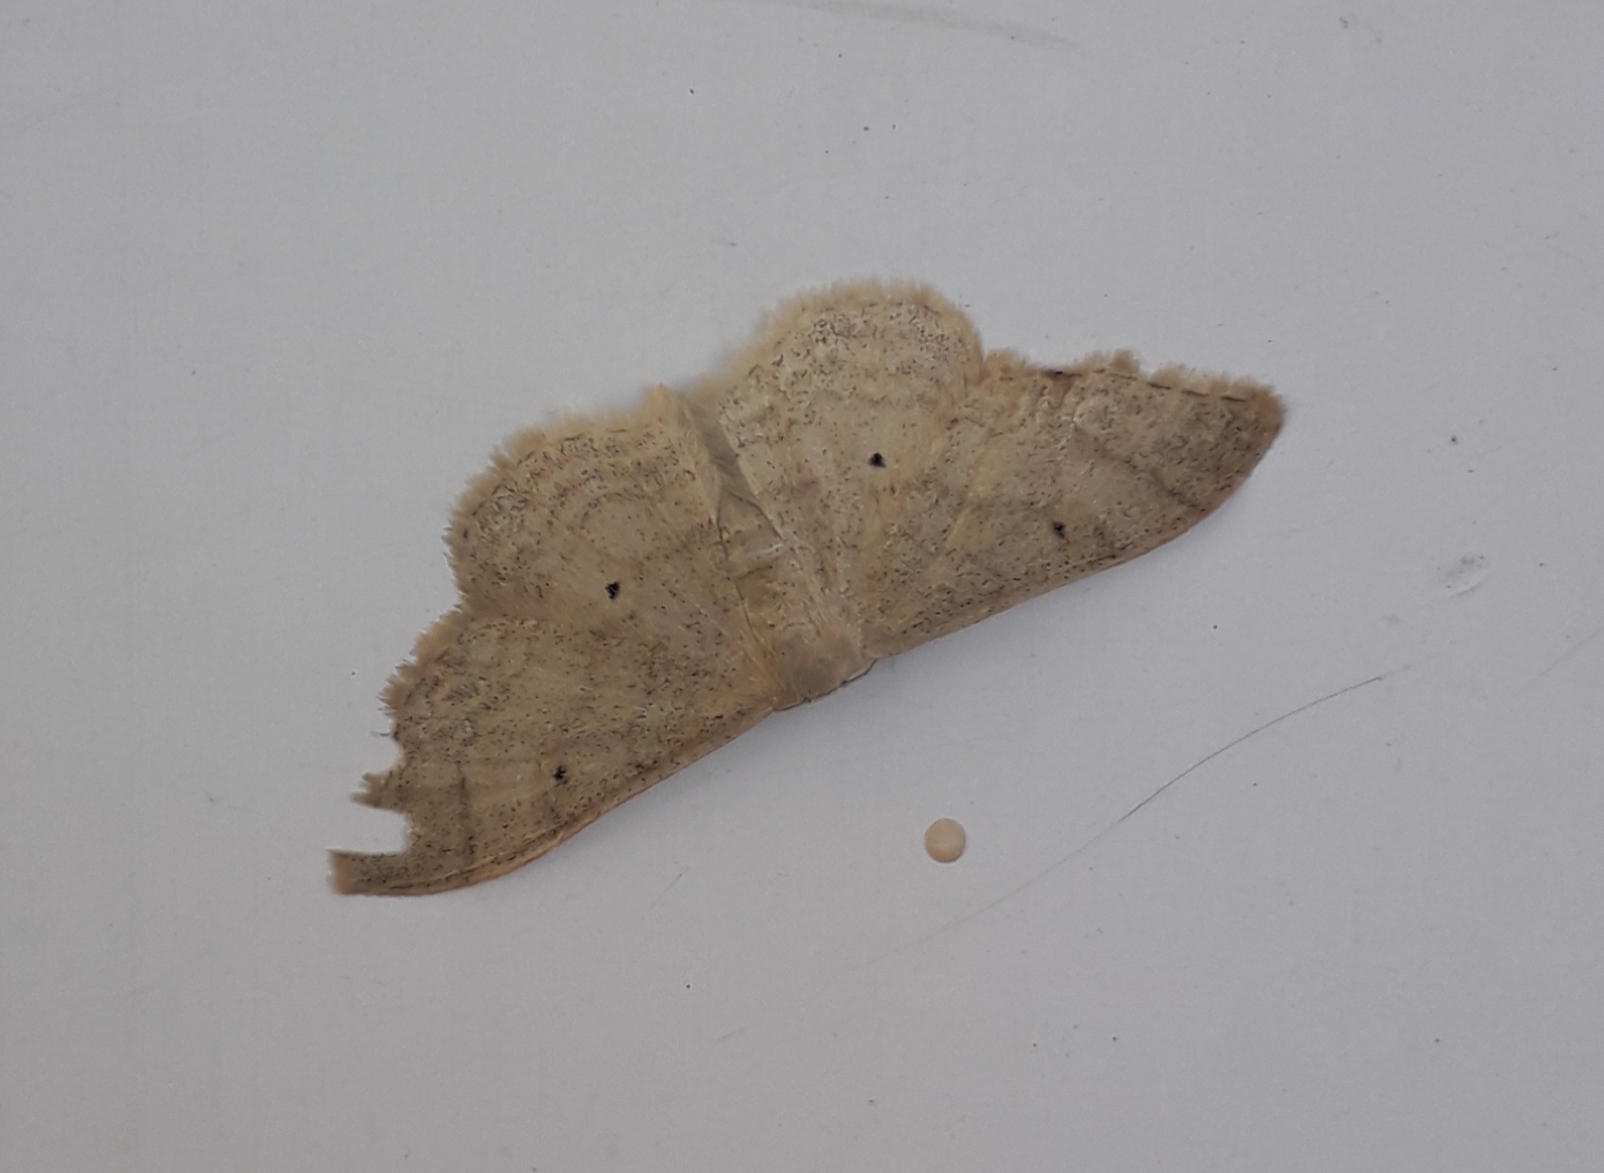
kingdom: Animalia
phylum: Arthropoda
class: Insecta
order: Lepidoptera
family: Geometridae
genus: Idaea
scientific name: Idaea maritimaria
